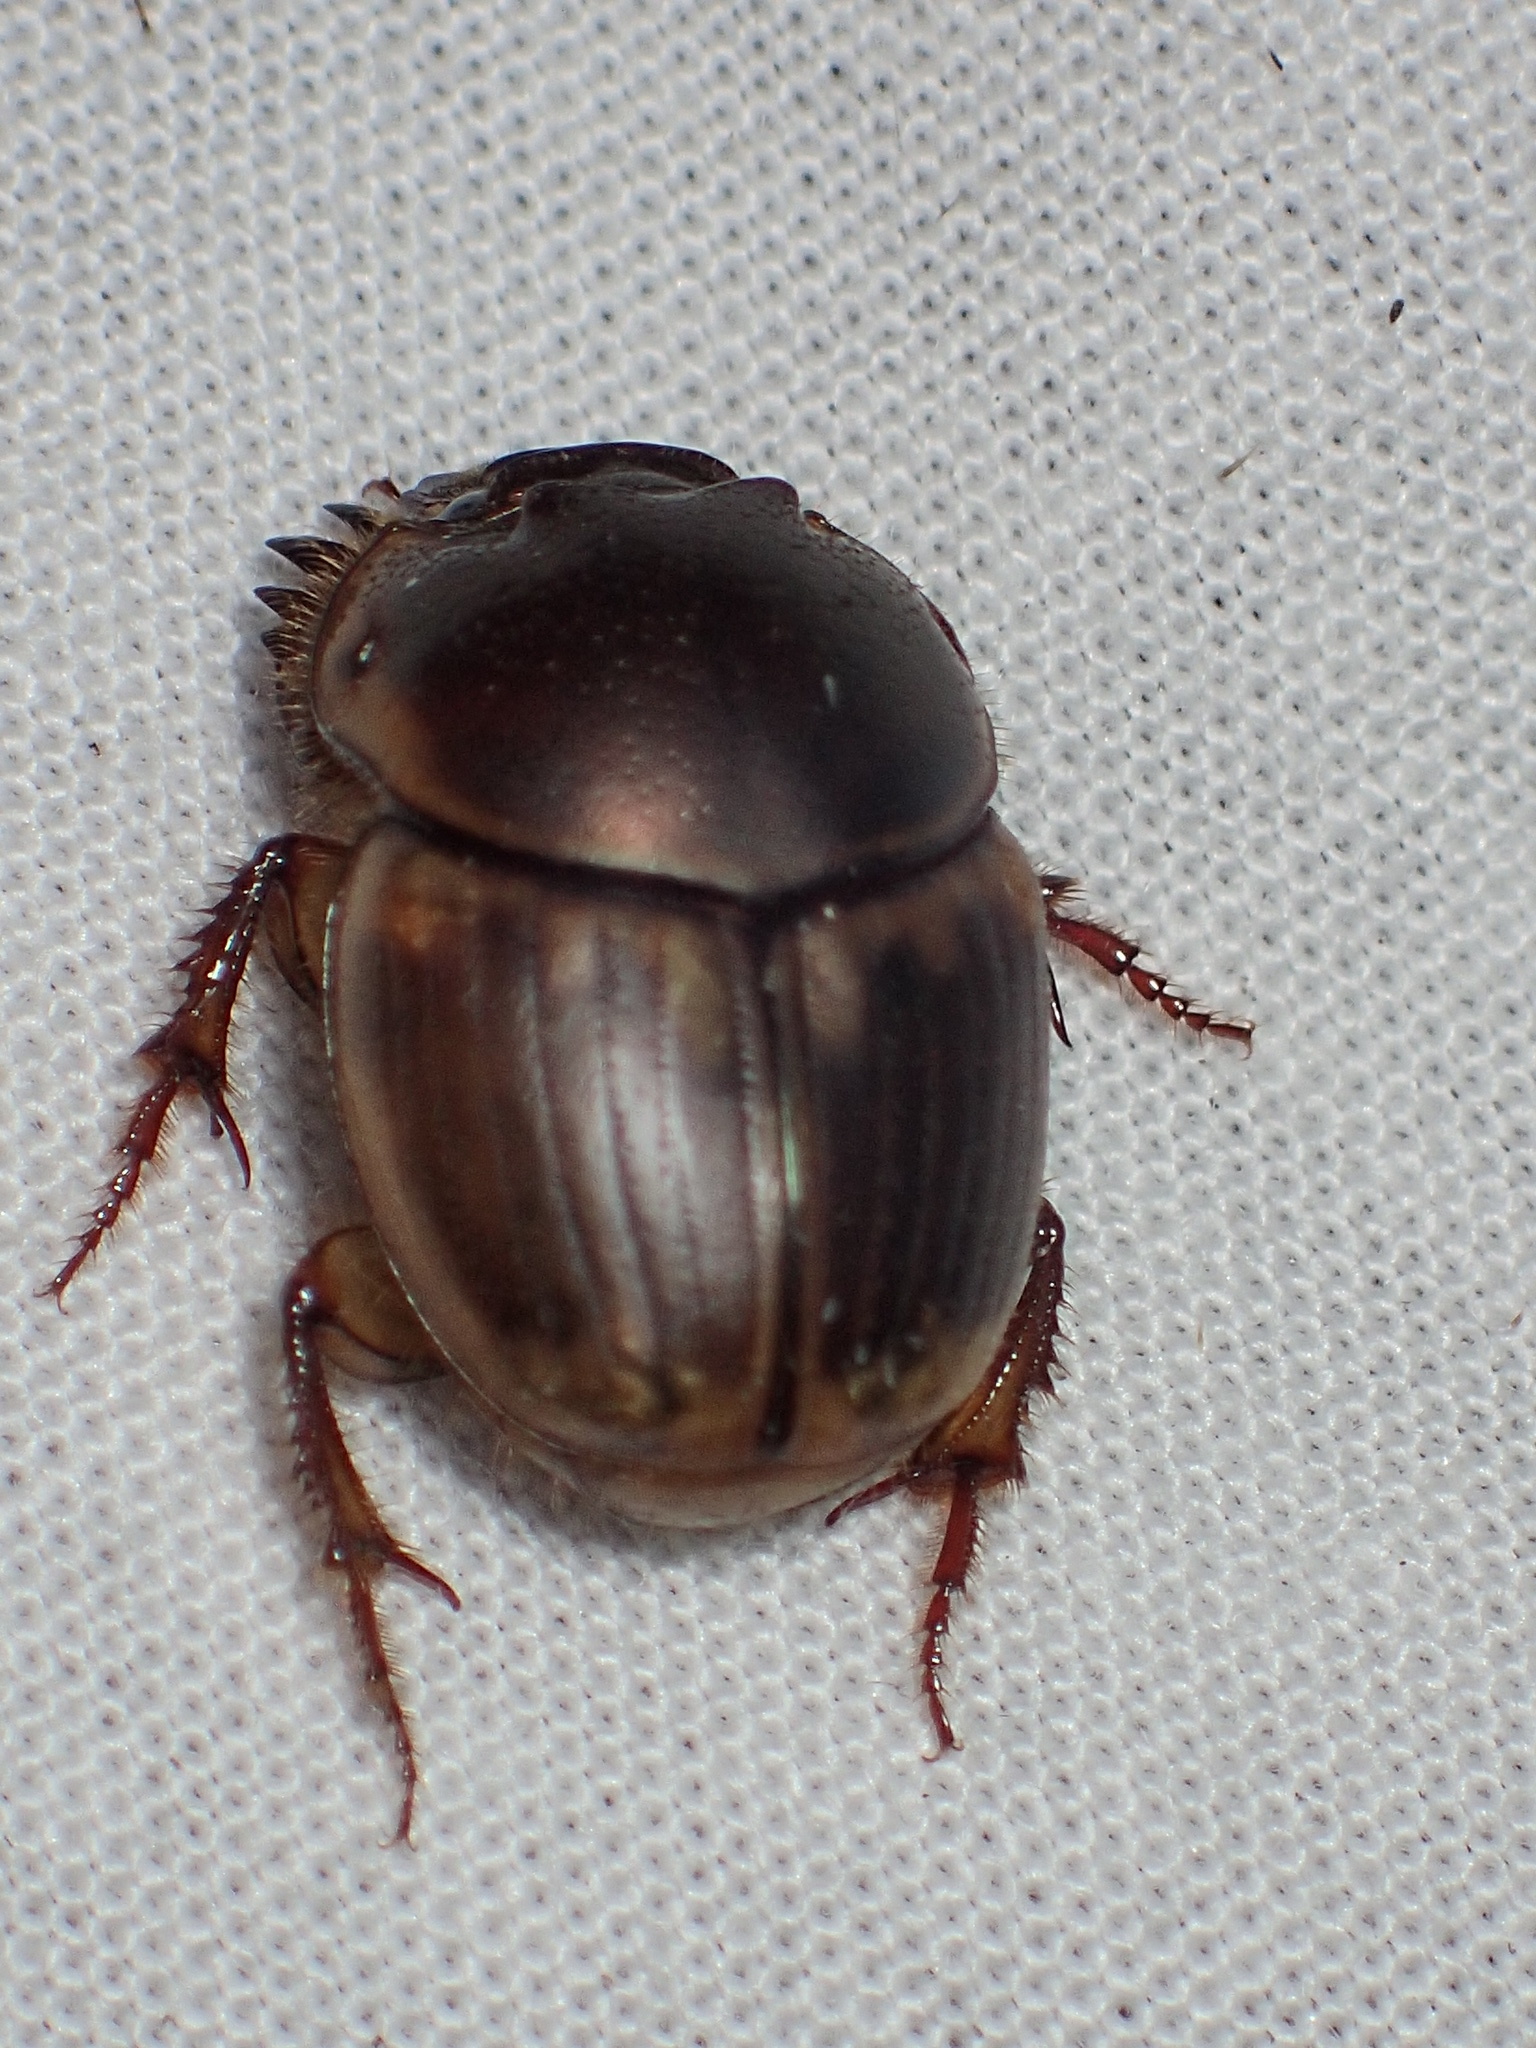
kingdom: Animalia
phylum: Arthropoda
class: Insecta
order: Coleoptera
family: Scarabaeidae
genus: Digitonthophagus
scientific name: Digitonthophagus gazella
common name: Brown dung beetle
